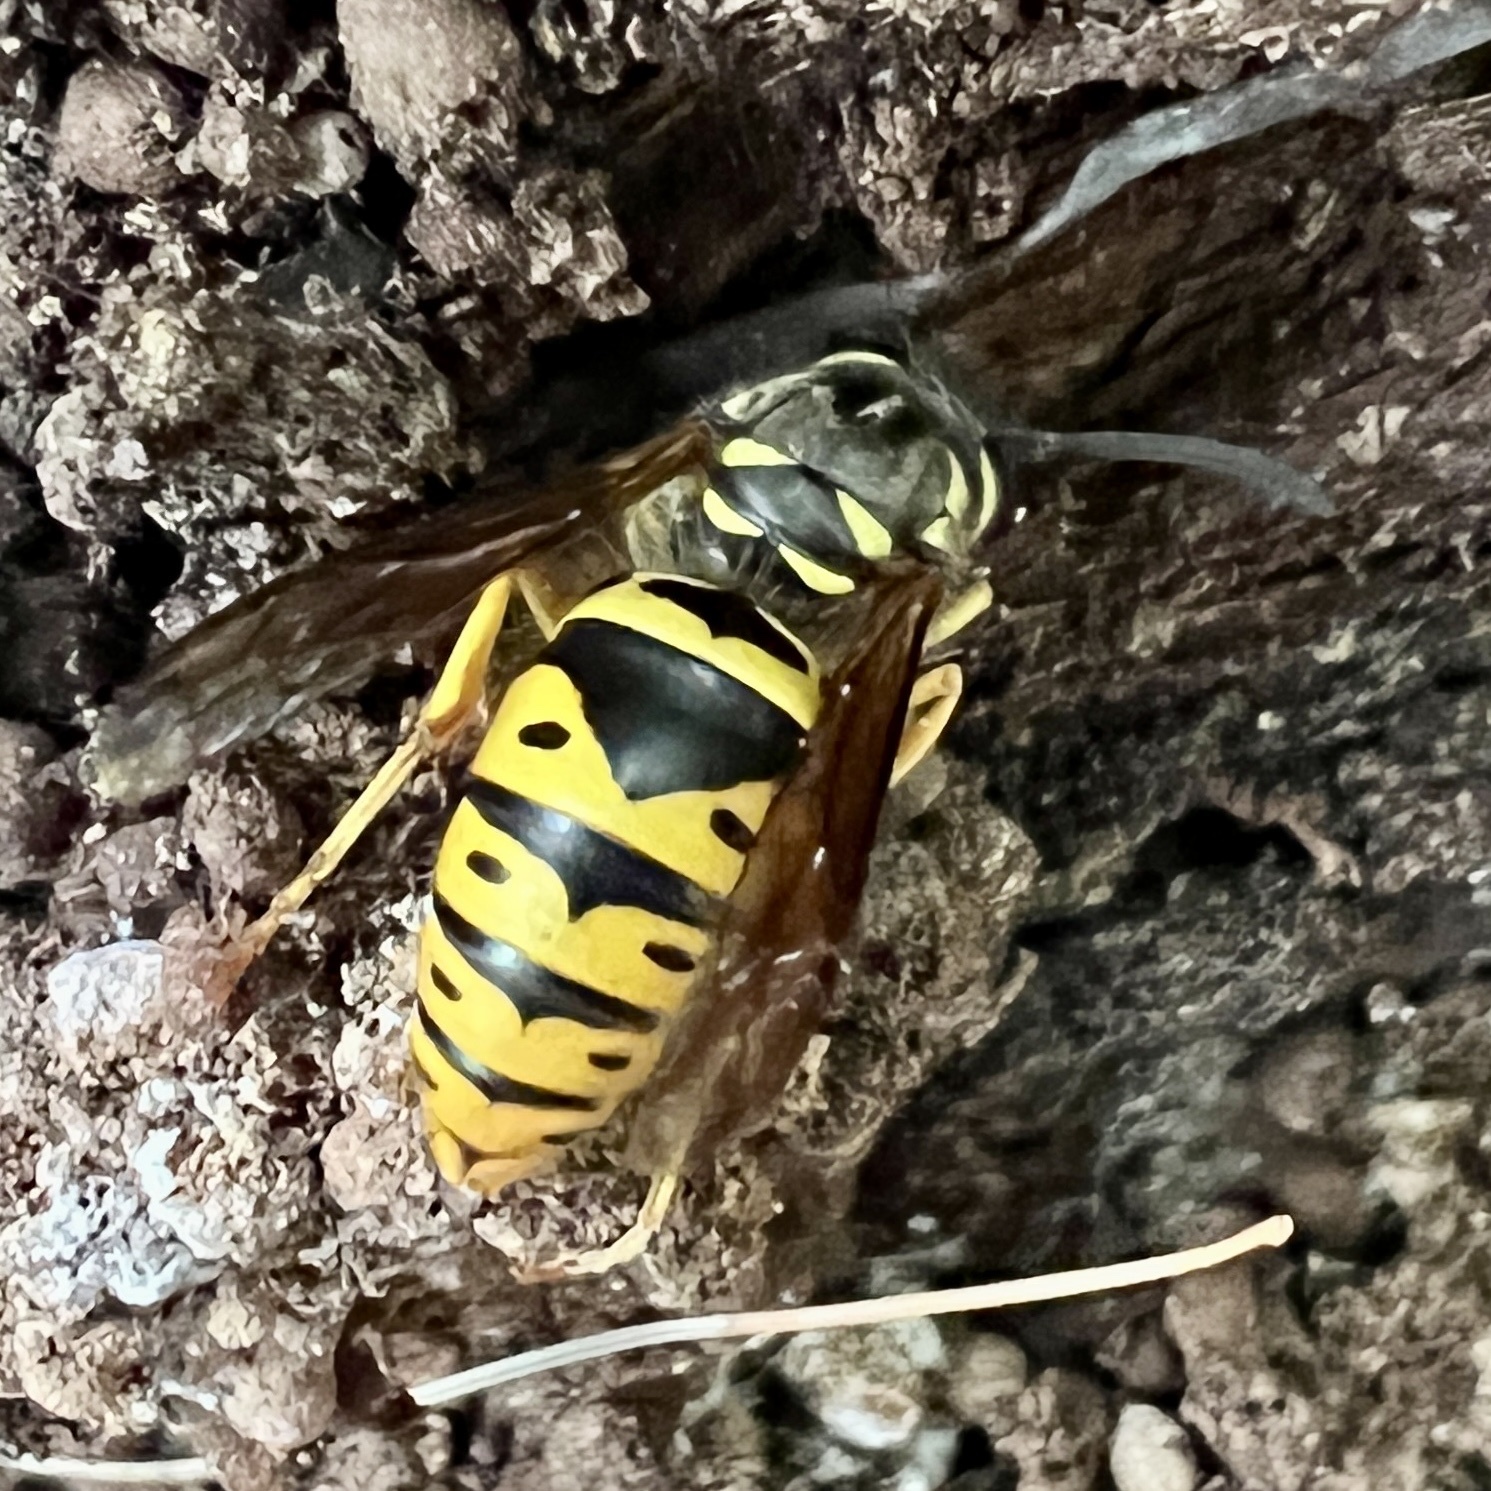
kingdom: Animalia
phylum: Arthropoda
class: Insecta
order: Hymenoptera
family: Vespidae
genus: Vespula
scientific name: Vespula maculifrons
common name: Eastern yellowjacket
